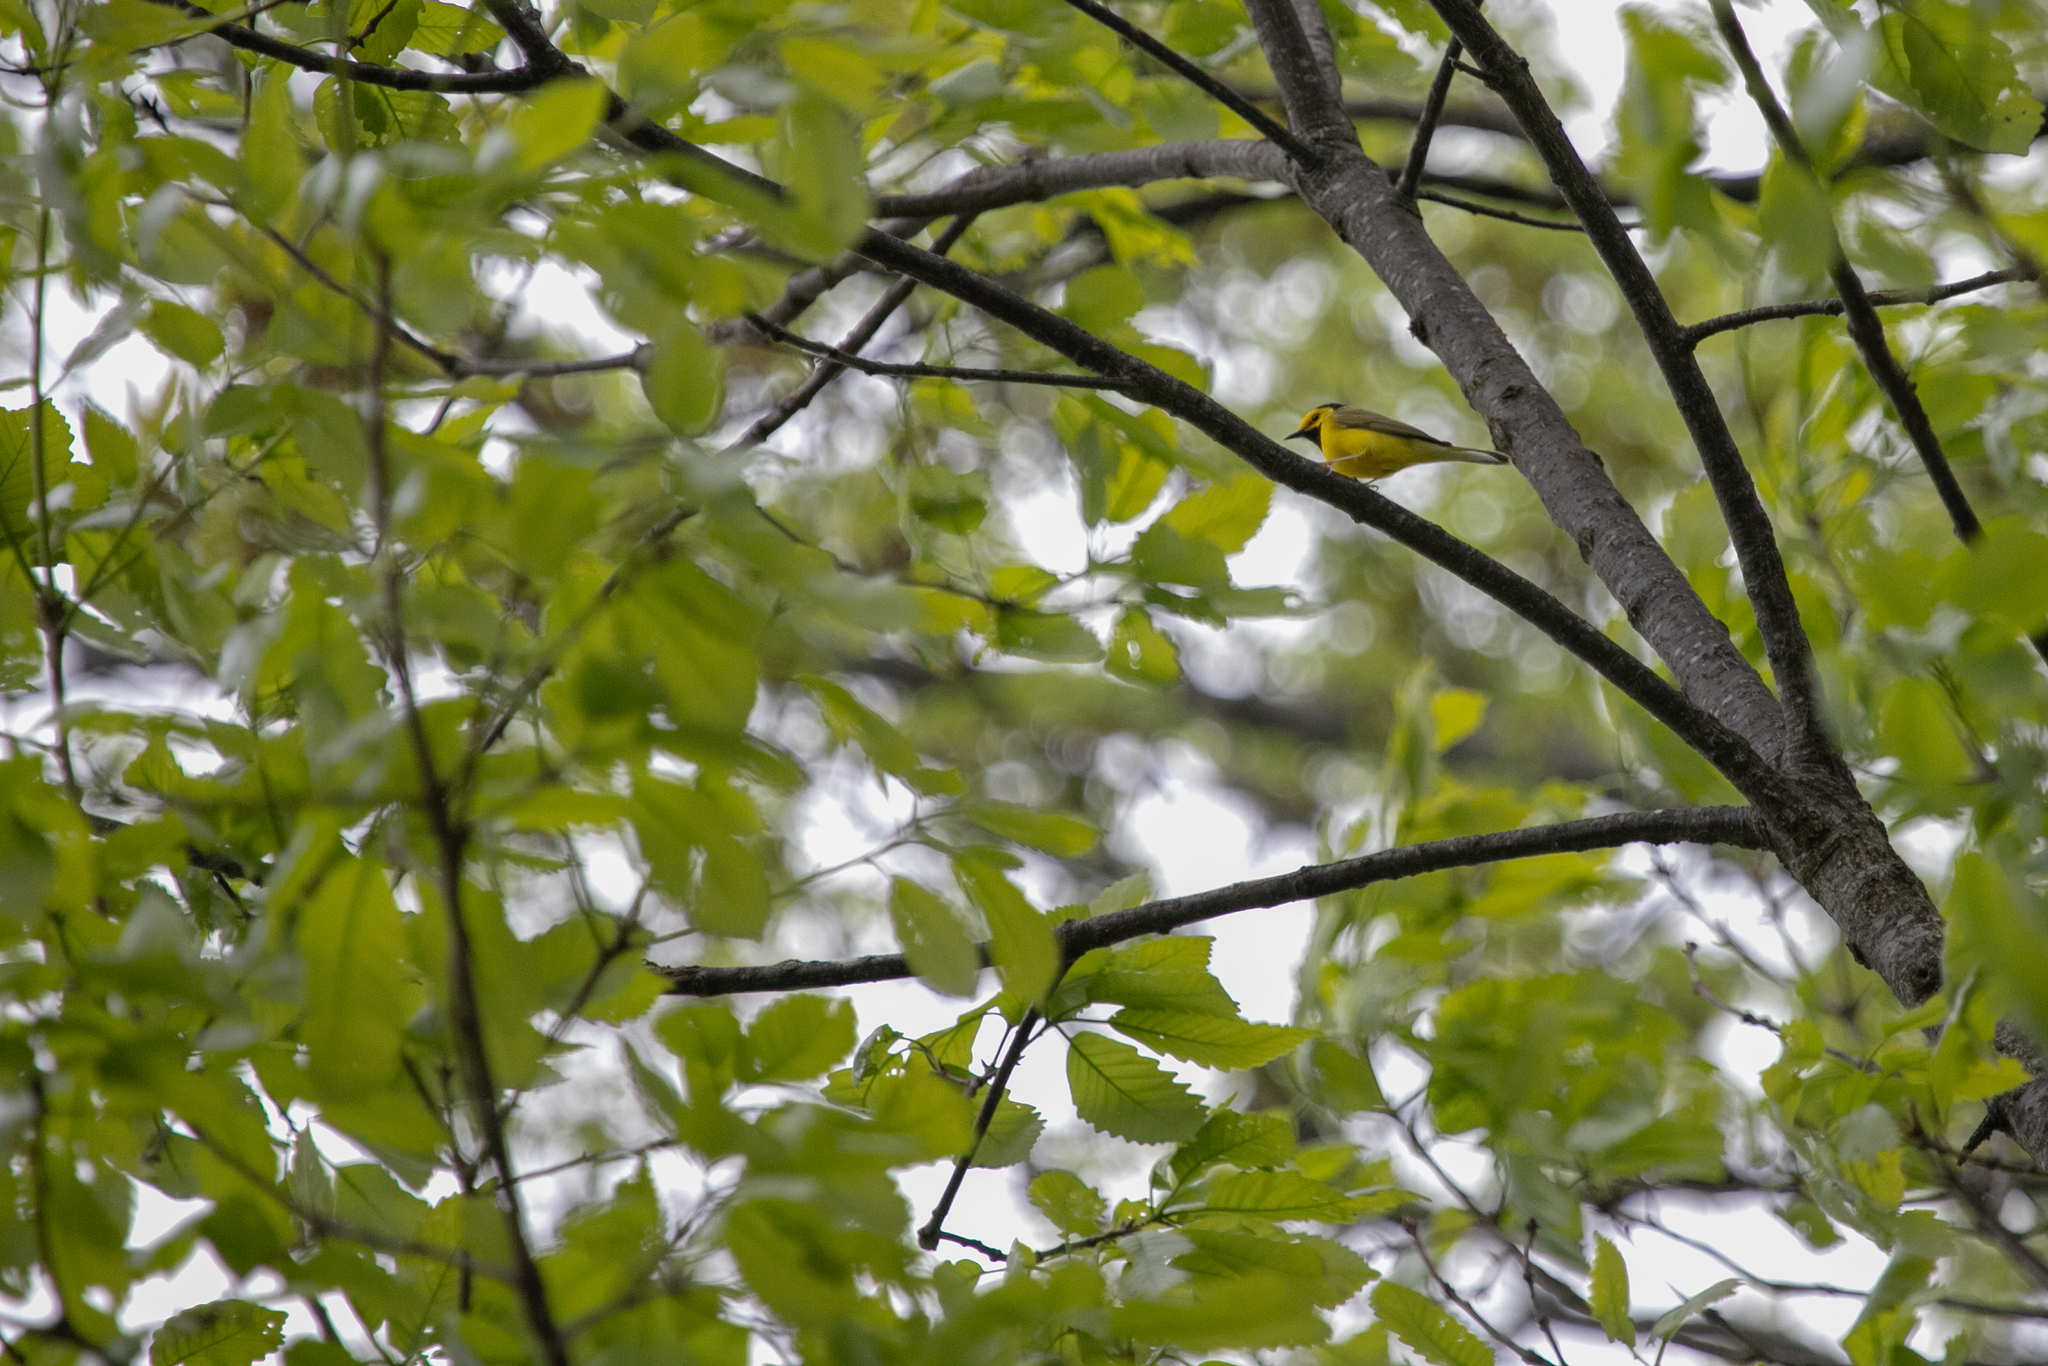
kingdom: Animalia
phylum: Chordata
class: Aves
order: Passeriformes
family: Parulidae
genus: Setophaga
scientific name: Setophaga citrina
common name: Hooded warbler
